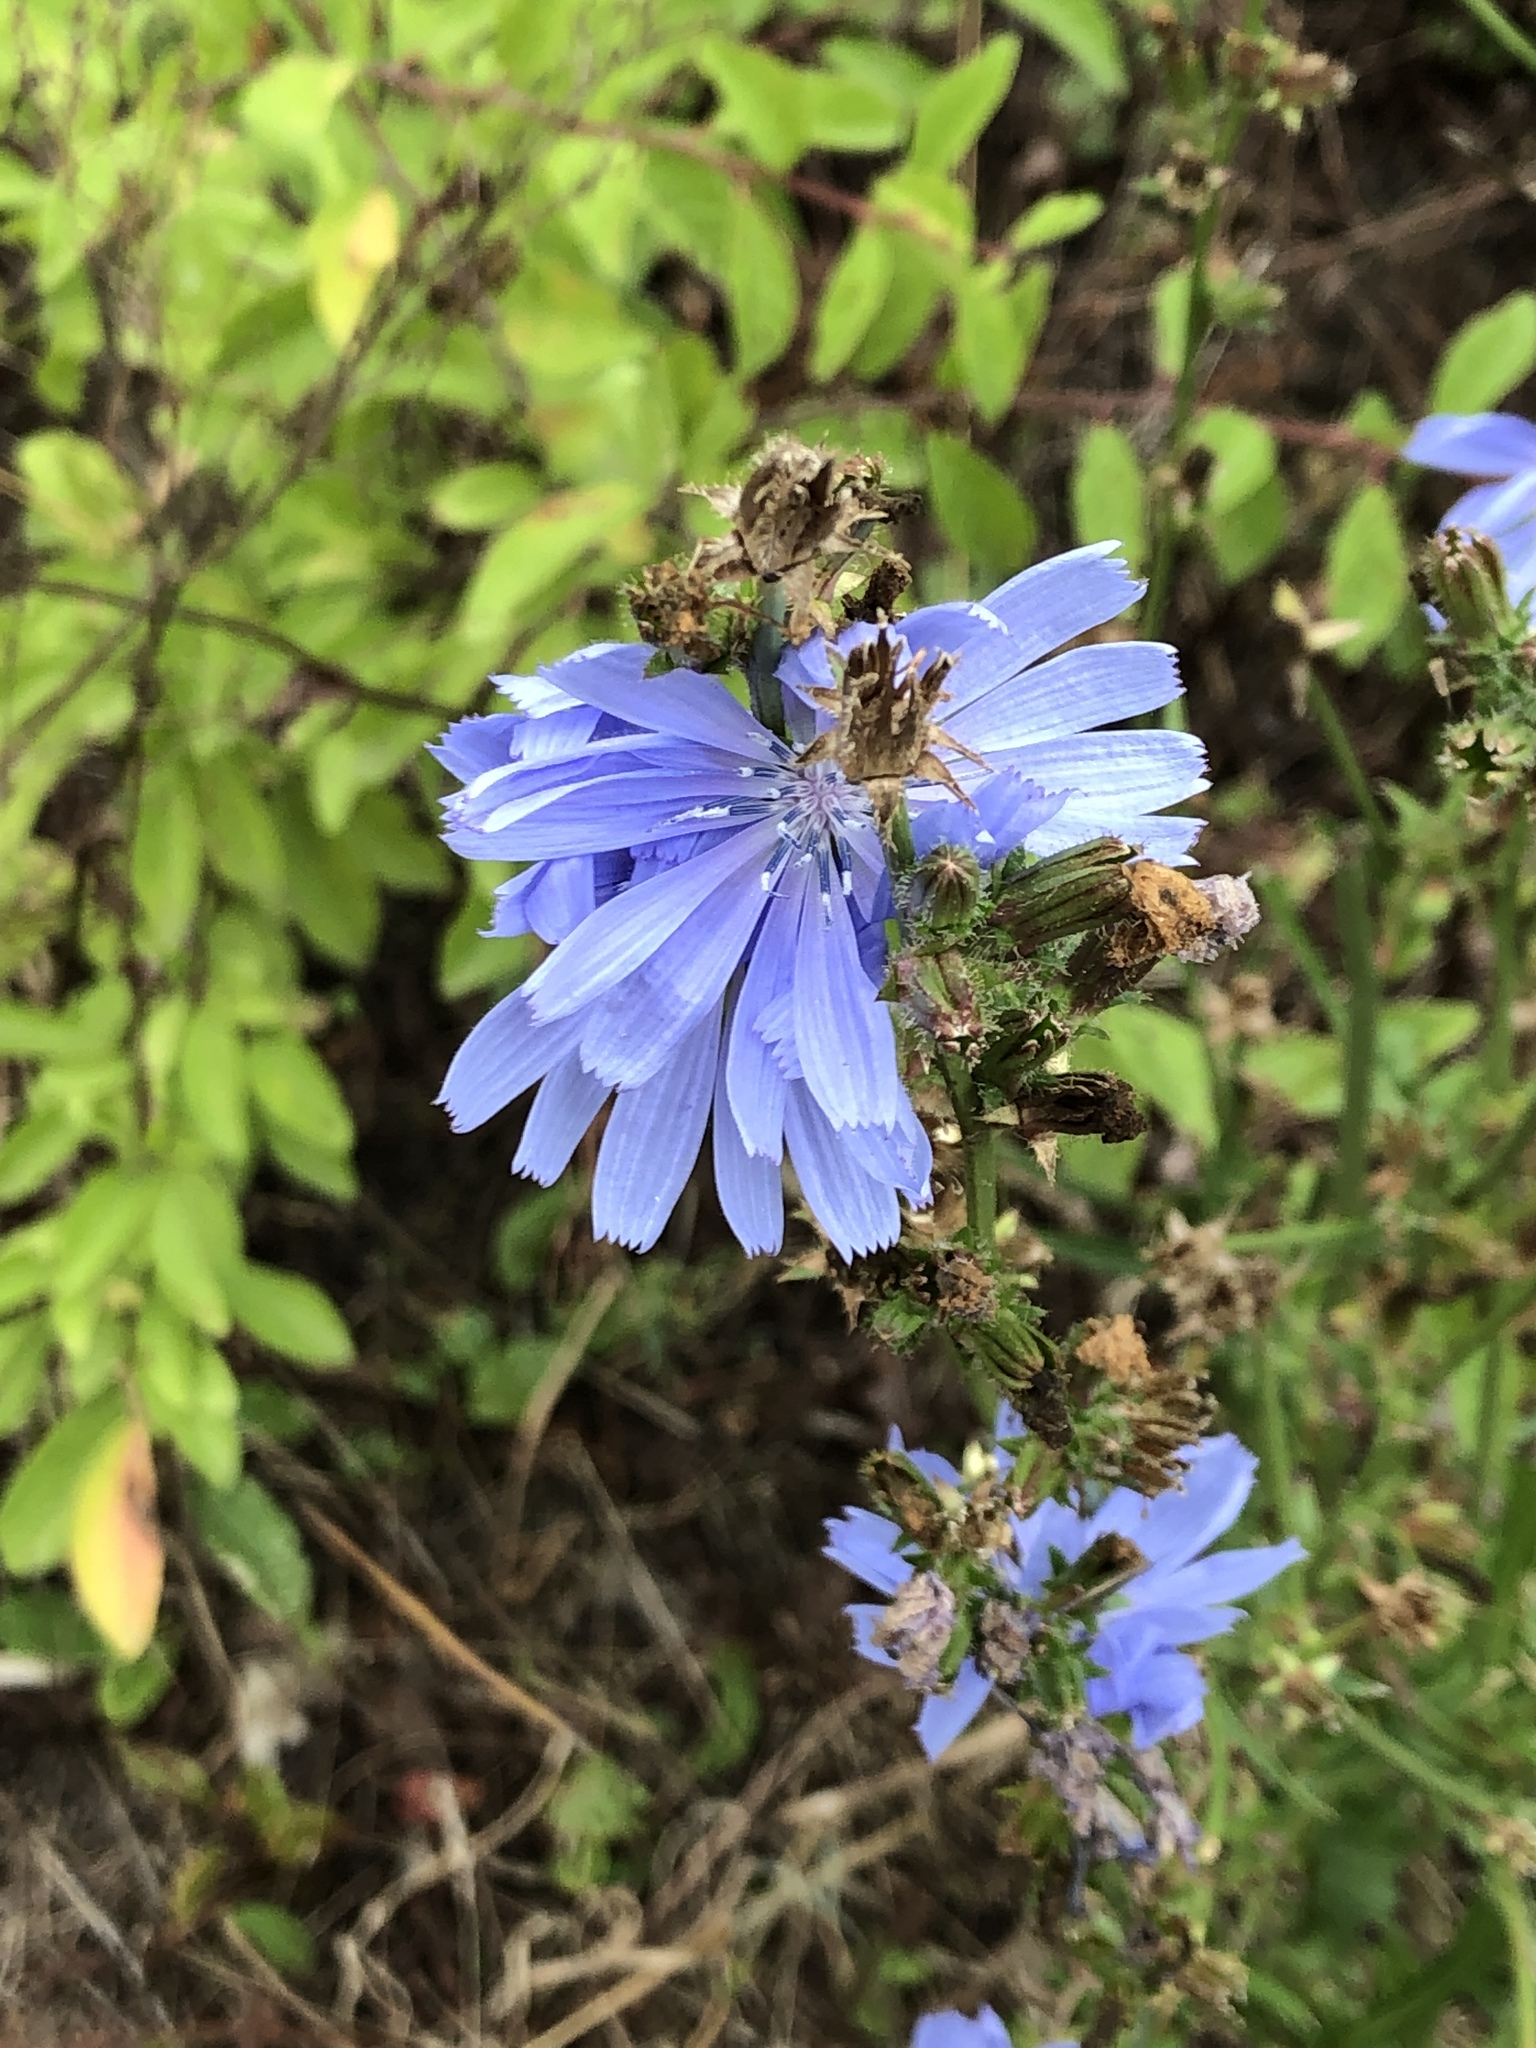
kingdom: Plantae
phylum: Tracheophyta
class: Magnoliopsida
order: Asterales
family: Asteraceae
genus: Cichorium
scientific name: Cichorium intybus
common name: Chicory
